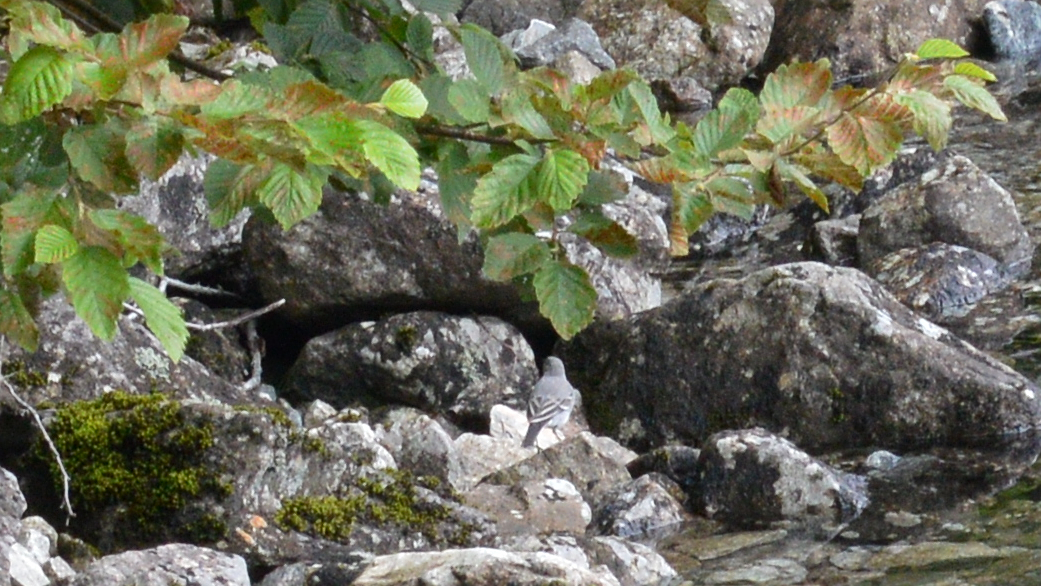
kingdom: Animalia
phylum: Chordata
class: Aves
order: Passeriformes
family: Motacillidae
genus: Motacilla
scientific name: Motacilla alba
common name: White wagtail
